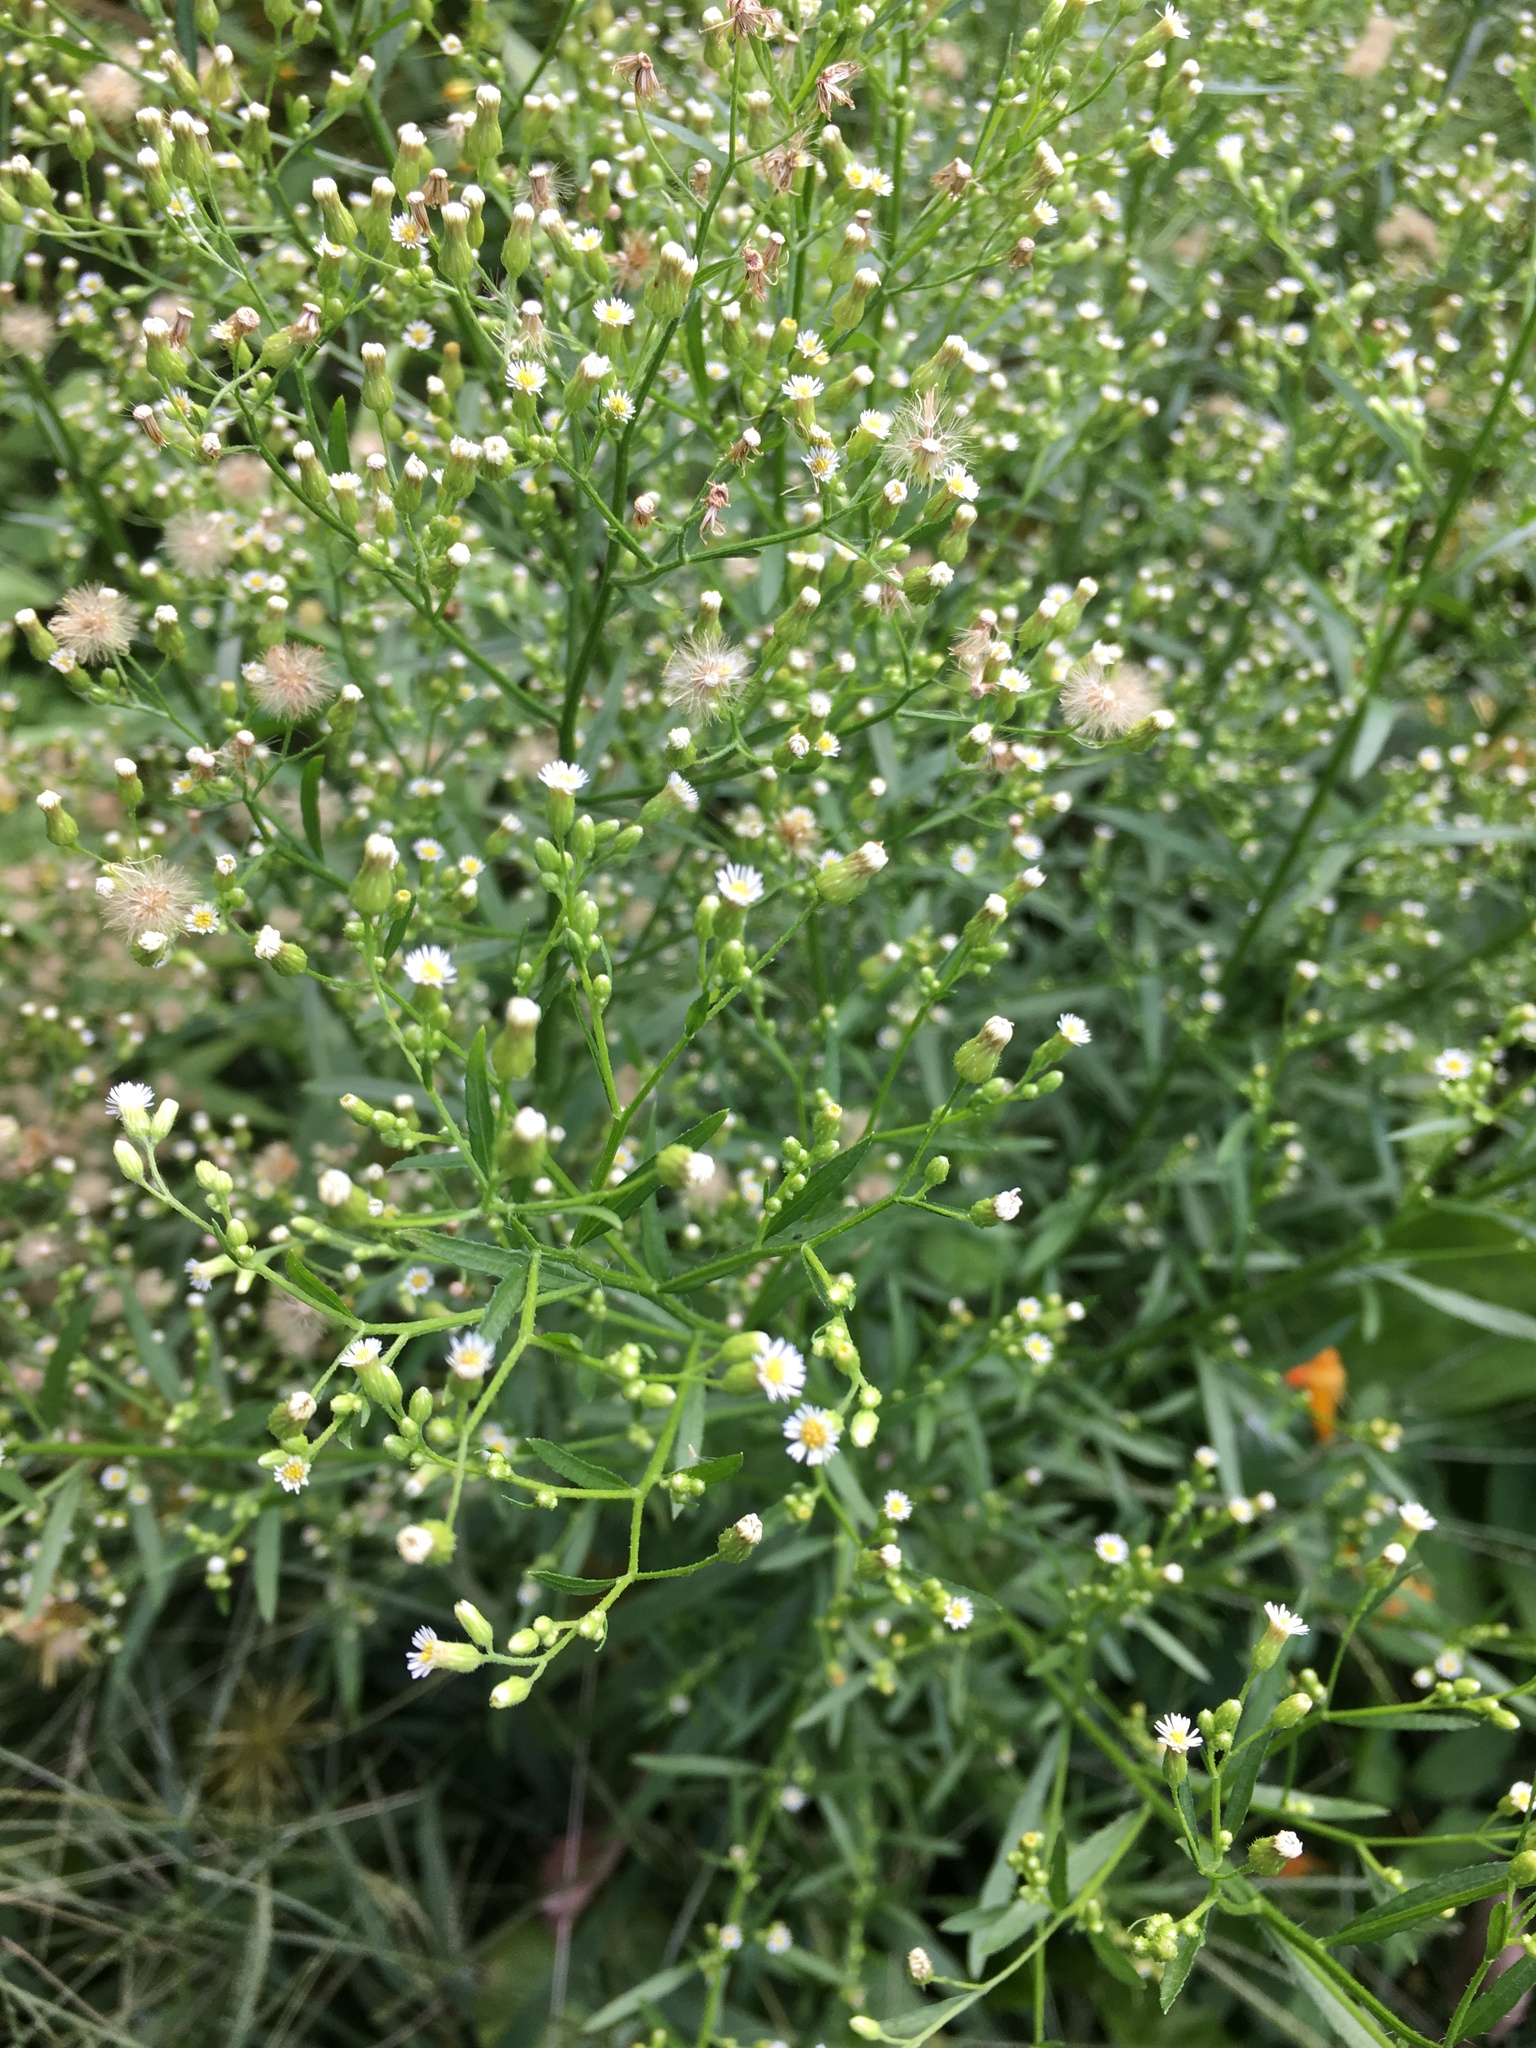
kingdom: Plantae
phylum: Tracheophyta
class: Magnoliopsida
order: Asterales
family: Asteraceae
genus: Erigeron
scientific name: Erigeron canadensis
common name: Canadian fleabane
